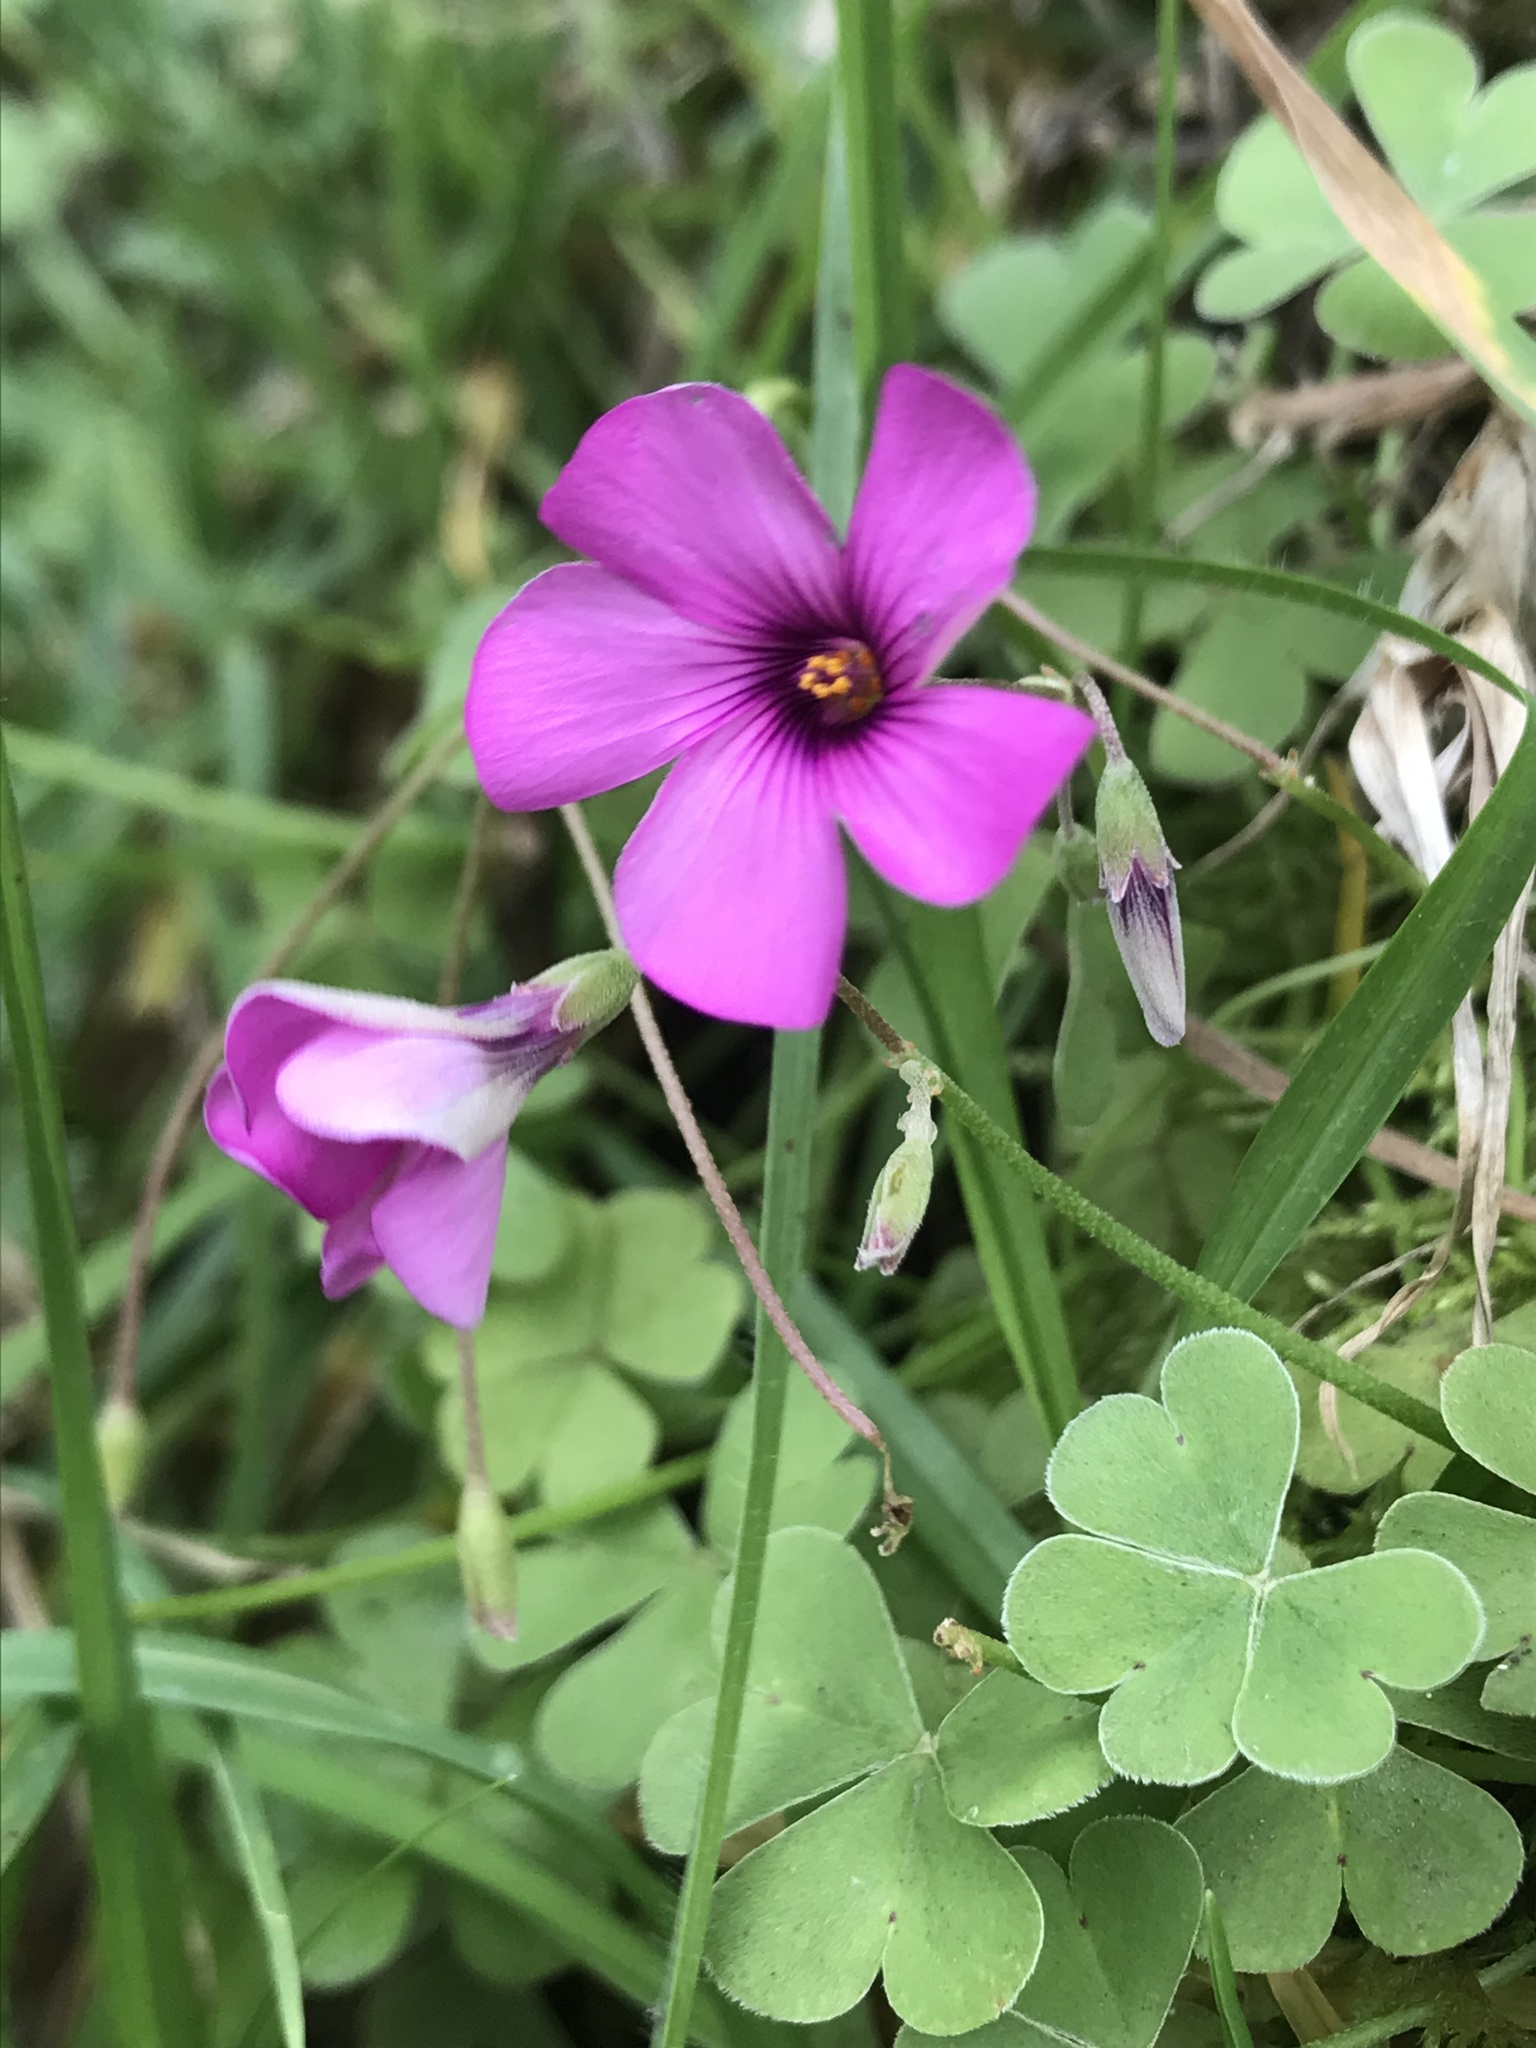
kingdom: Plantae
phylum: Tracheophyta
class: Magnoliopsida
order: Oxalidales
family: Oxalidaceae
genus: Oxalis
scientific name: Oxalis articulata
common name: Pink-sorrel
